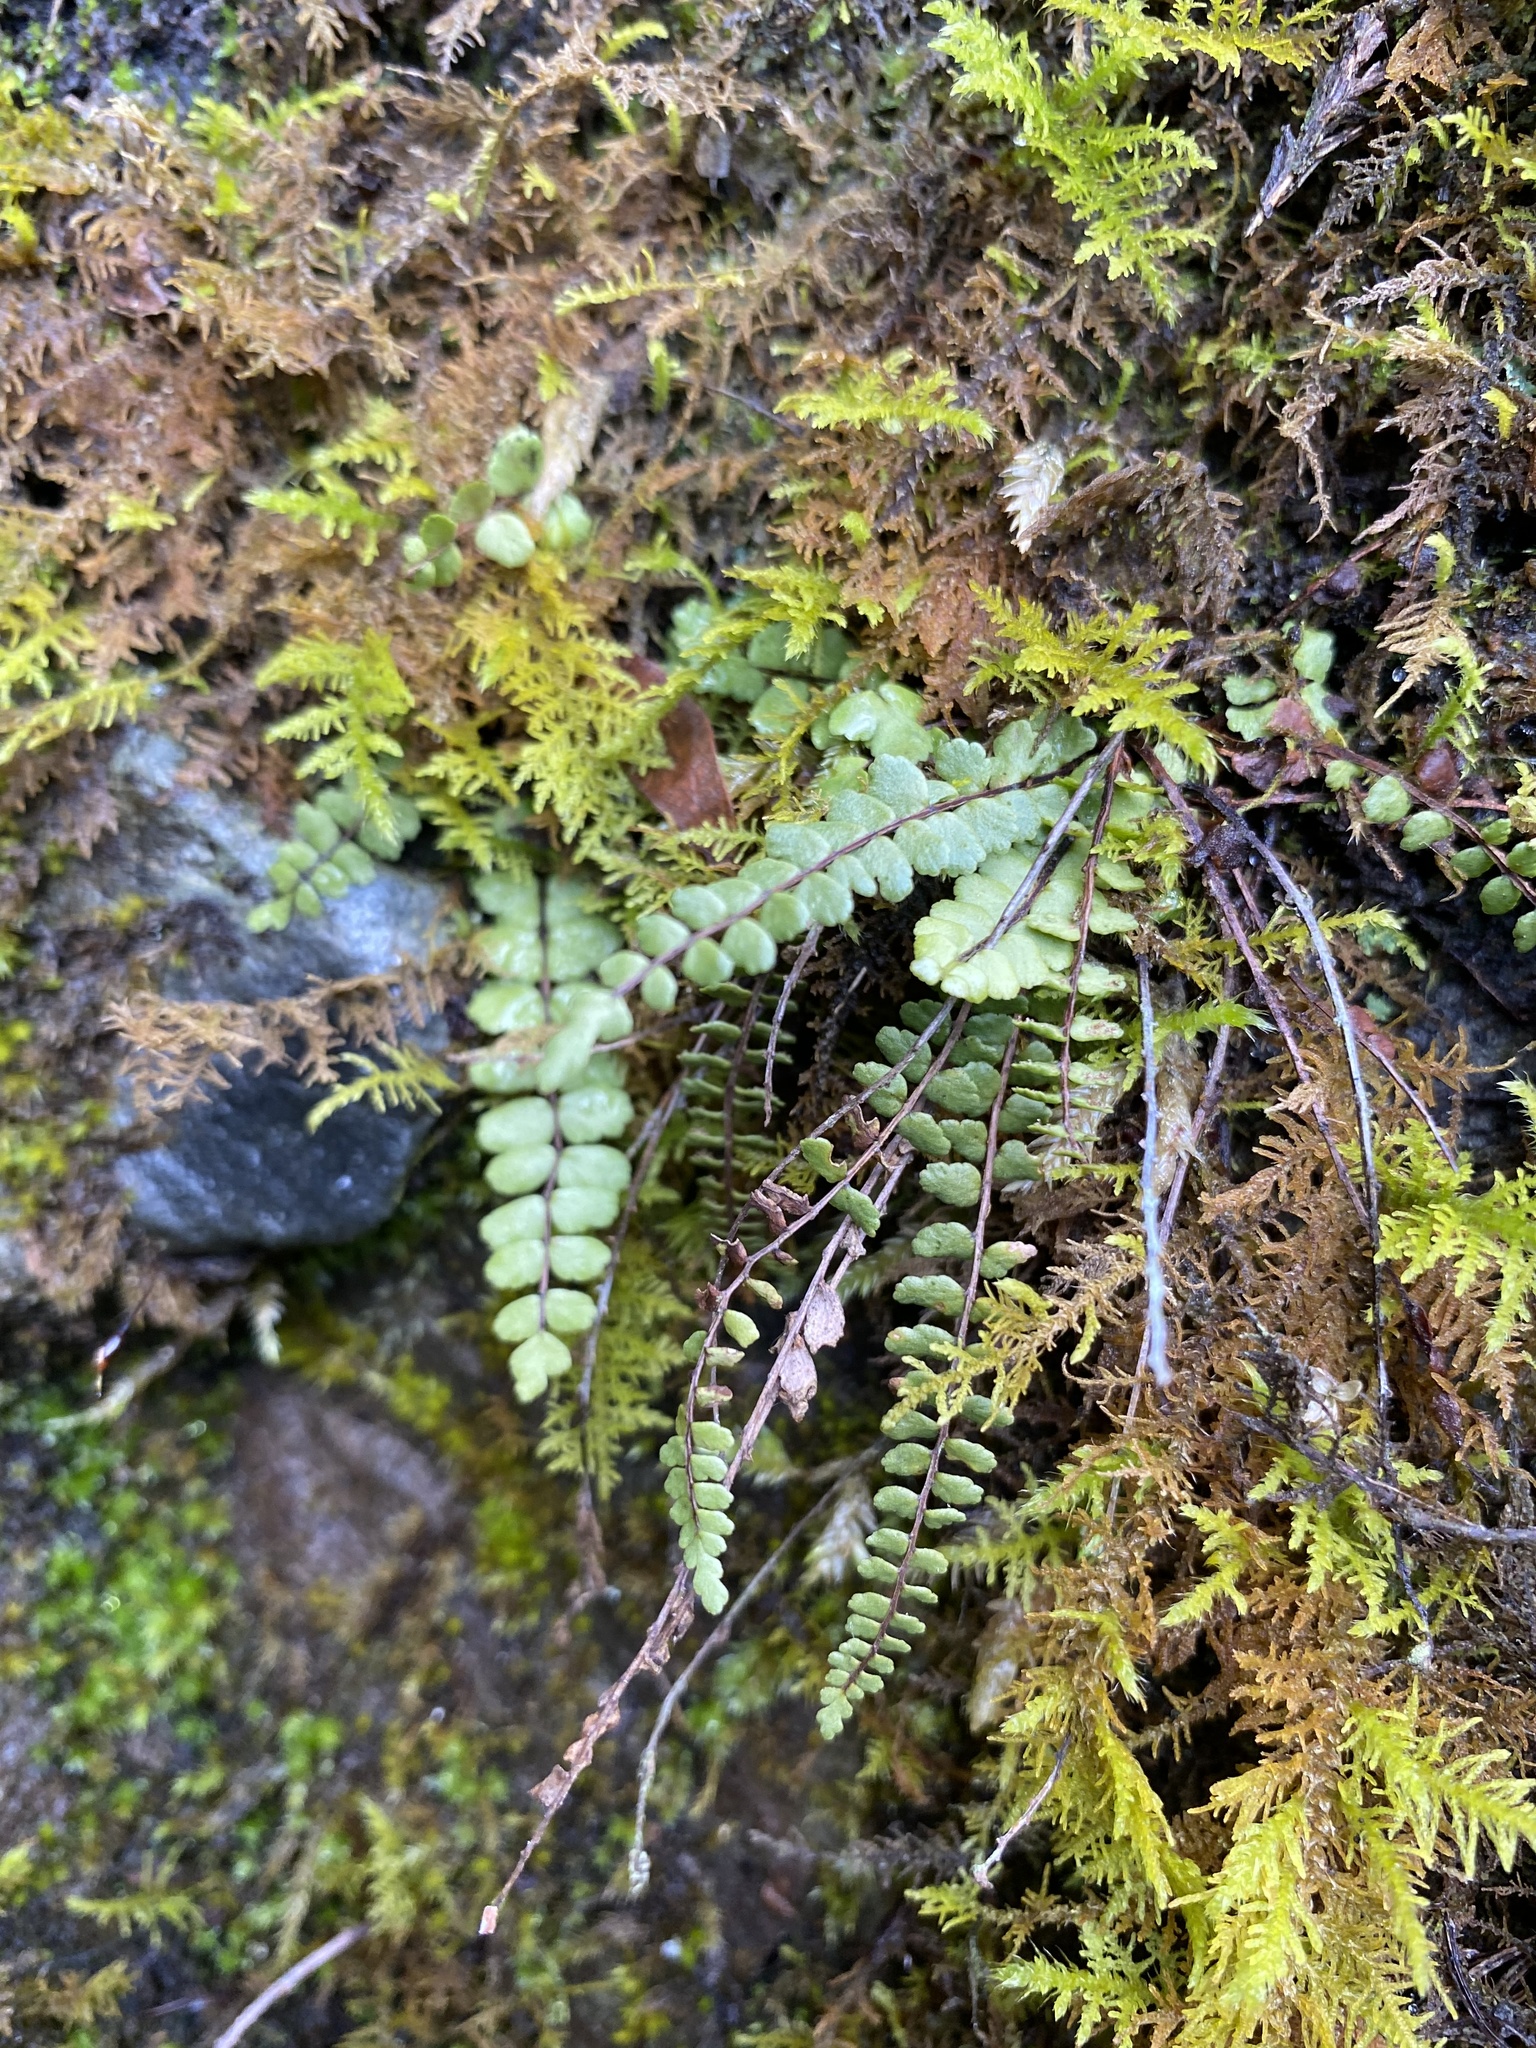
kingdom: Plantae
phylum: Tracheophyta
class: Polypodiopsida
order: Polypodiales
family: Aspleniaceae
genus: Asplenium
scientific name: Asplenium trichomanes
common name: Maidenhair spleenwort
